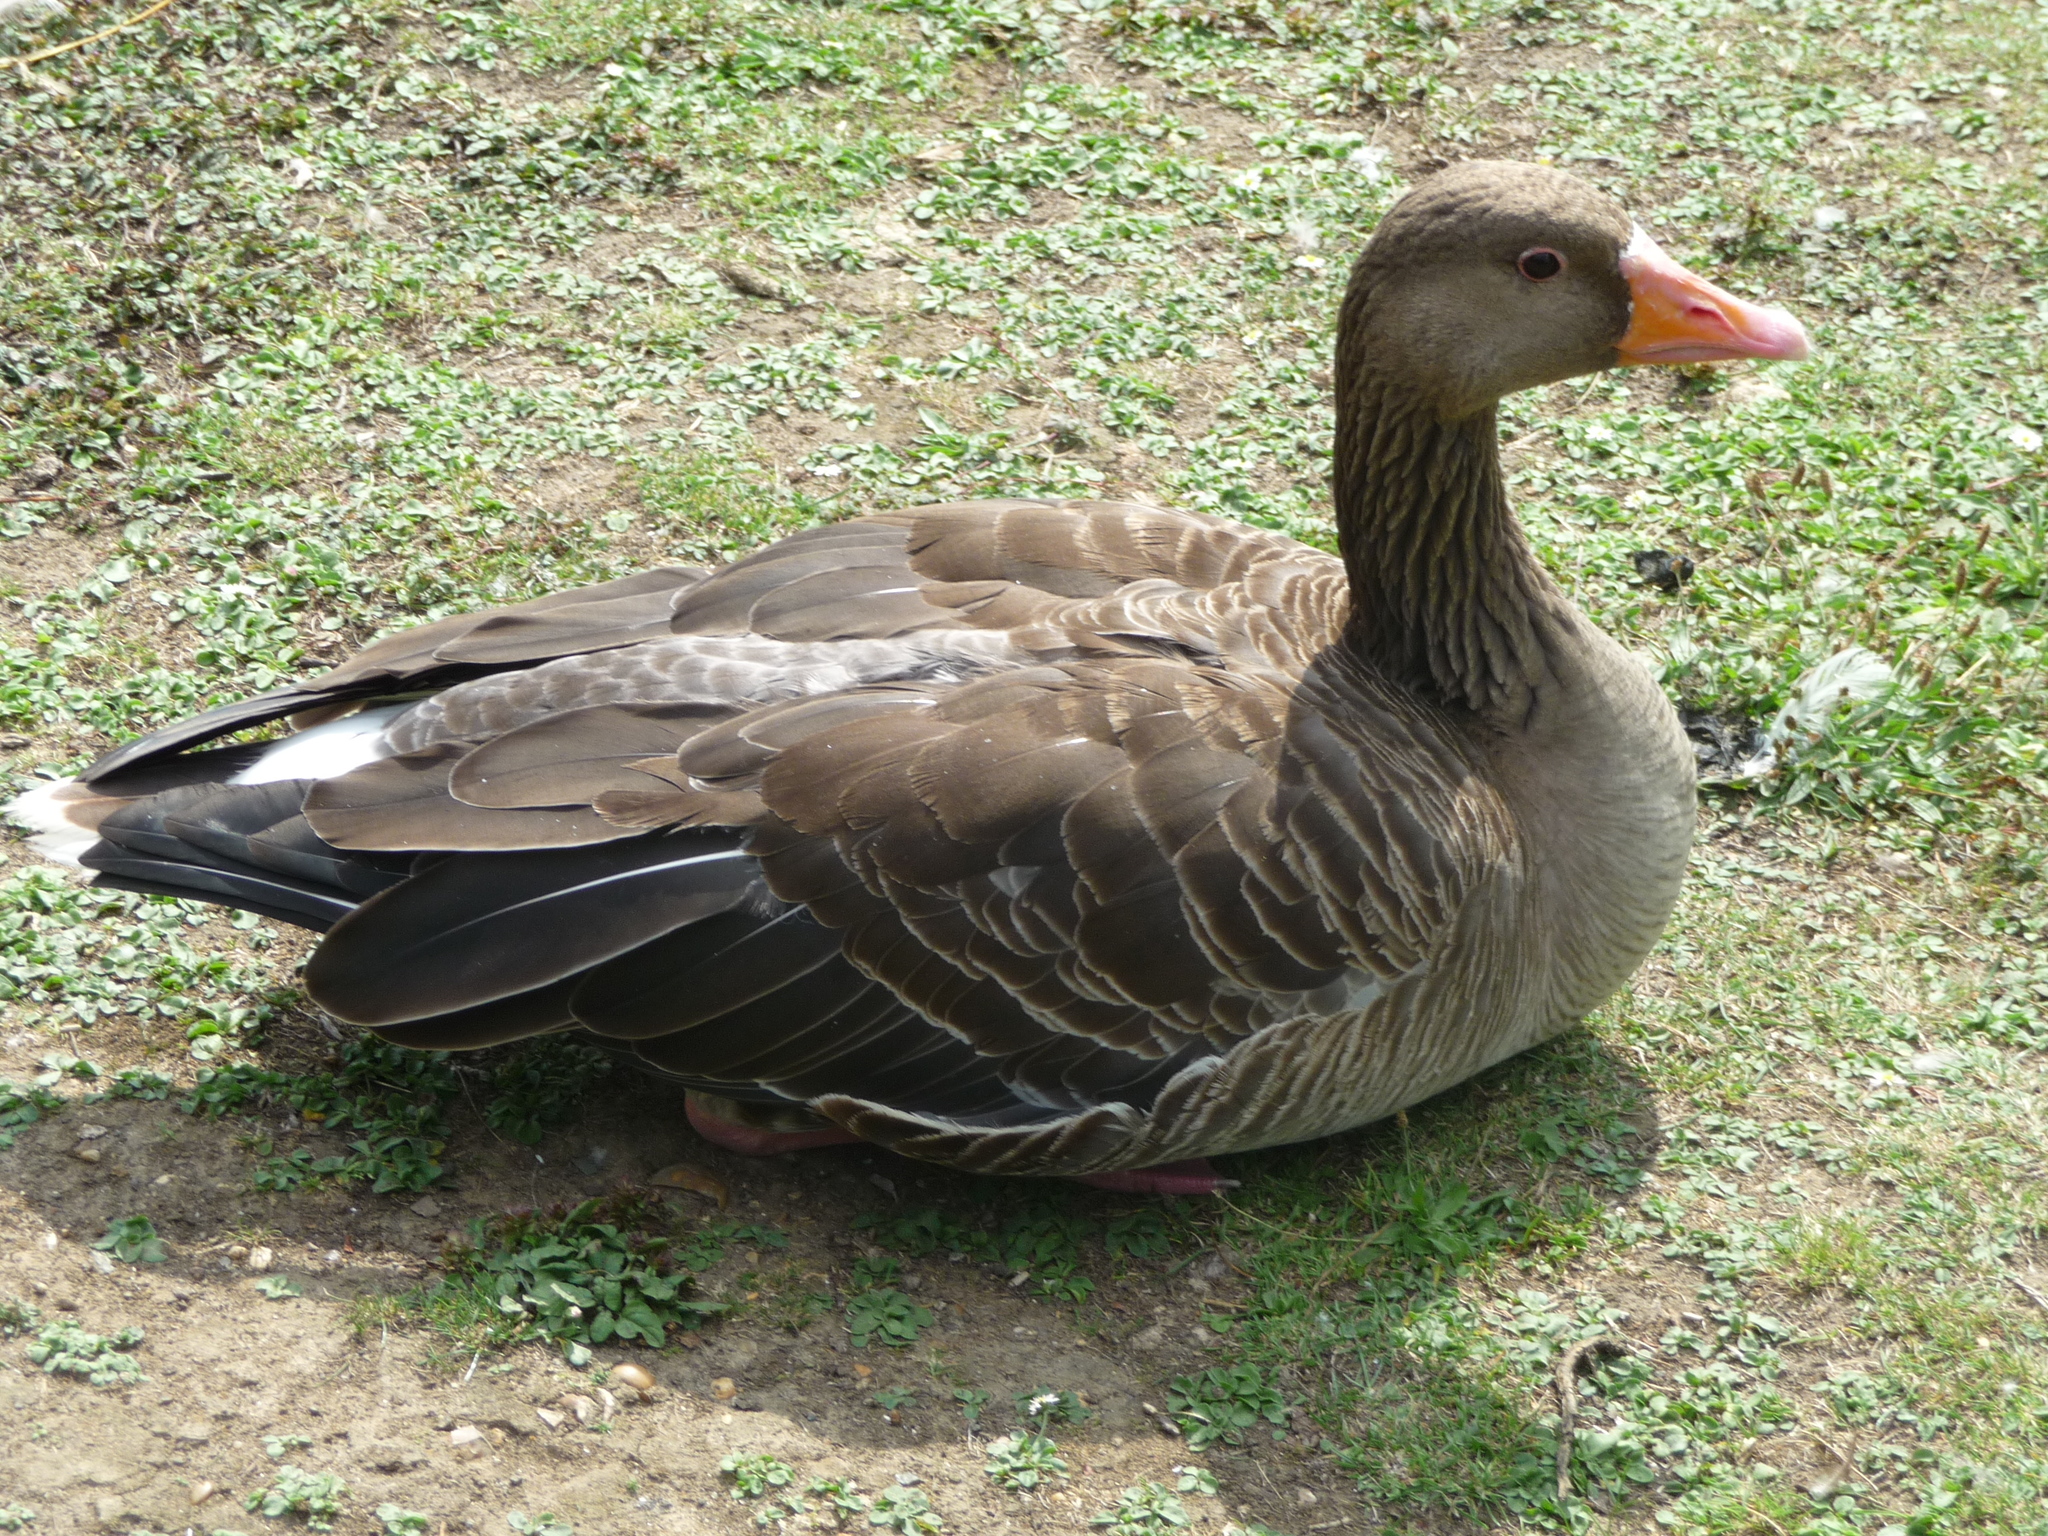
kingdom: Animalia
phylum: Chordata
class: Aves
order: Anseriformes
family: Anatidae
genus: Anser
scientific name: Anser anser
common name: Greylag goose
